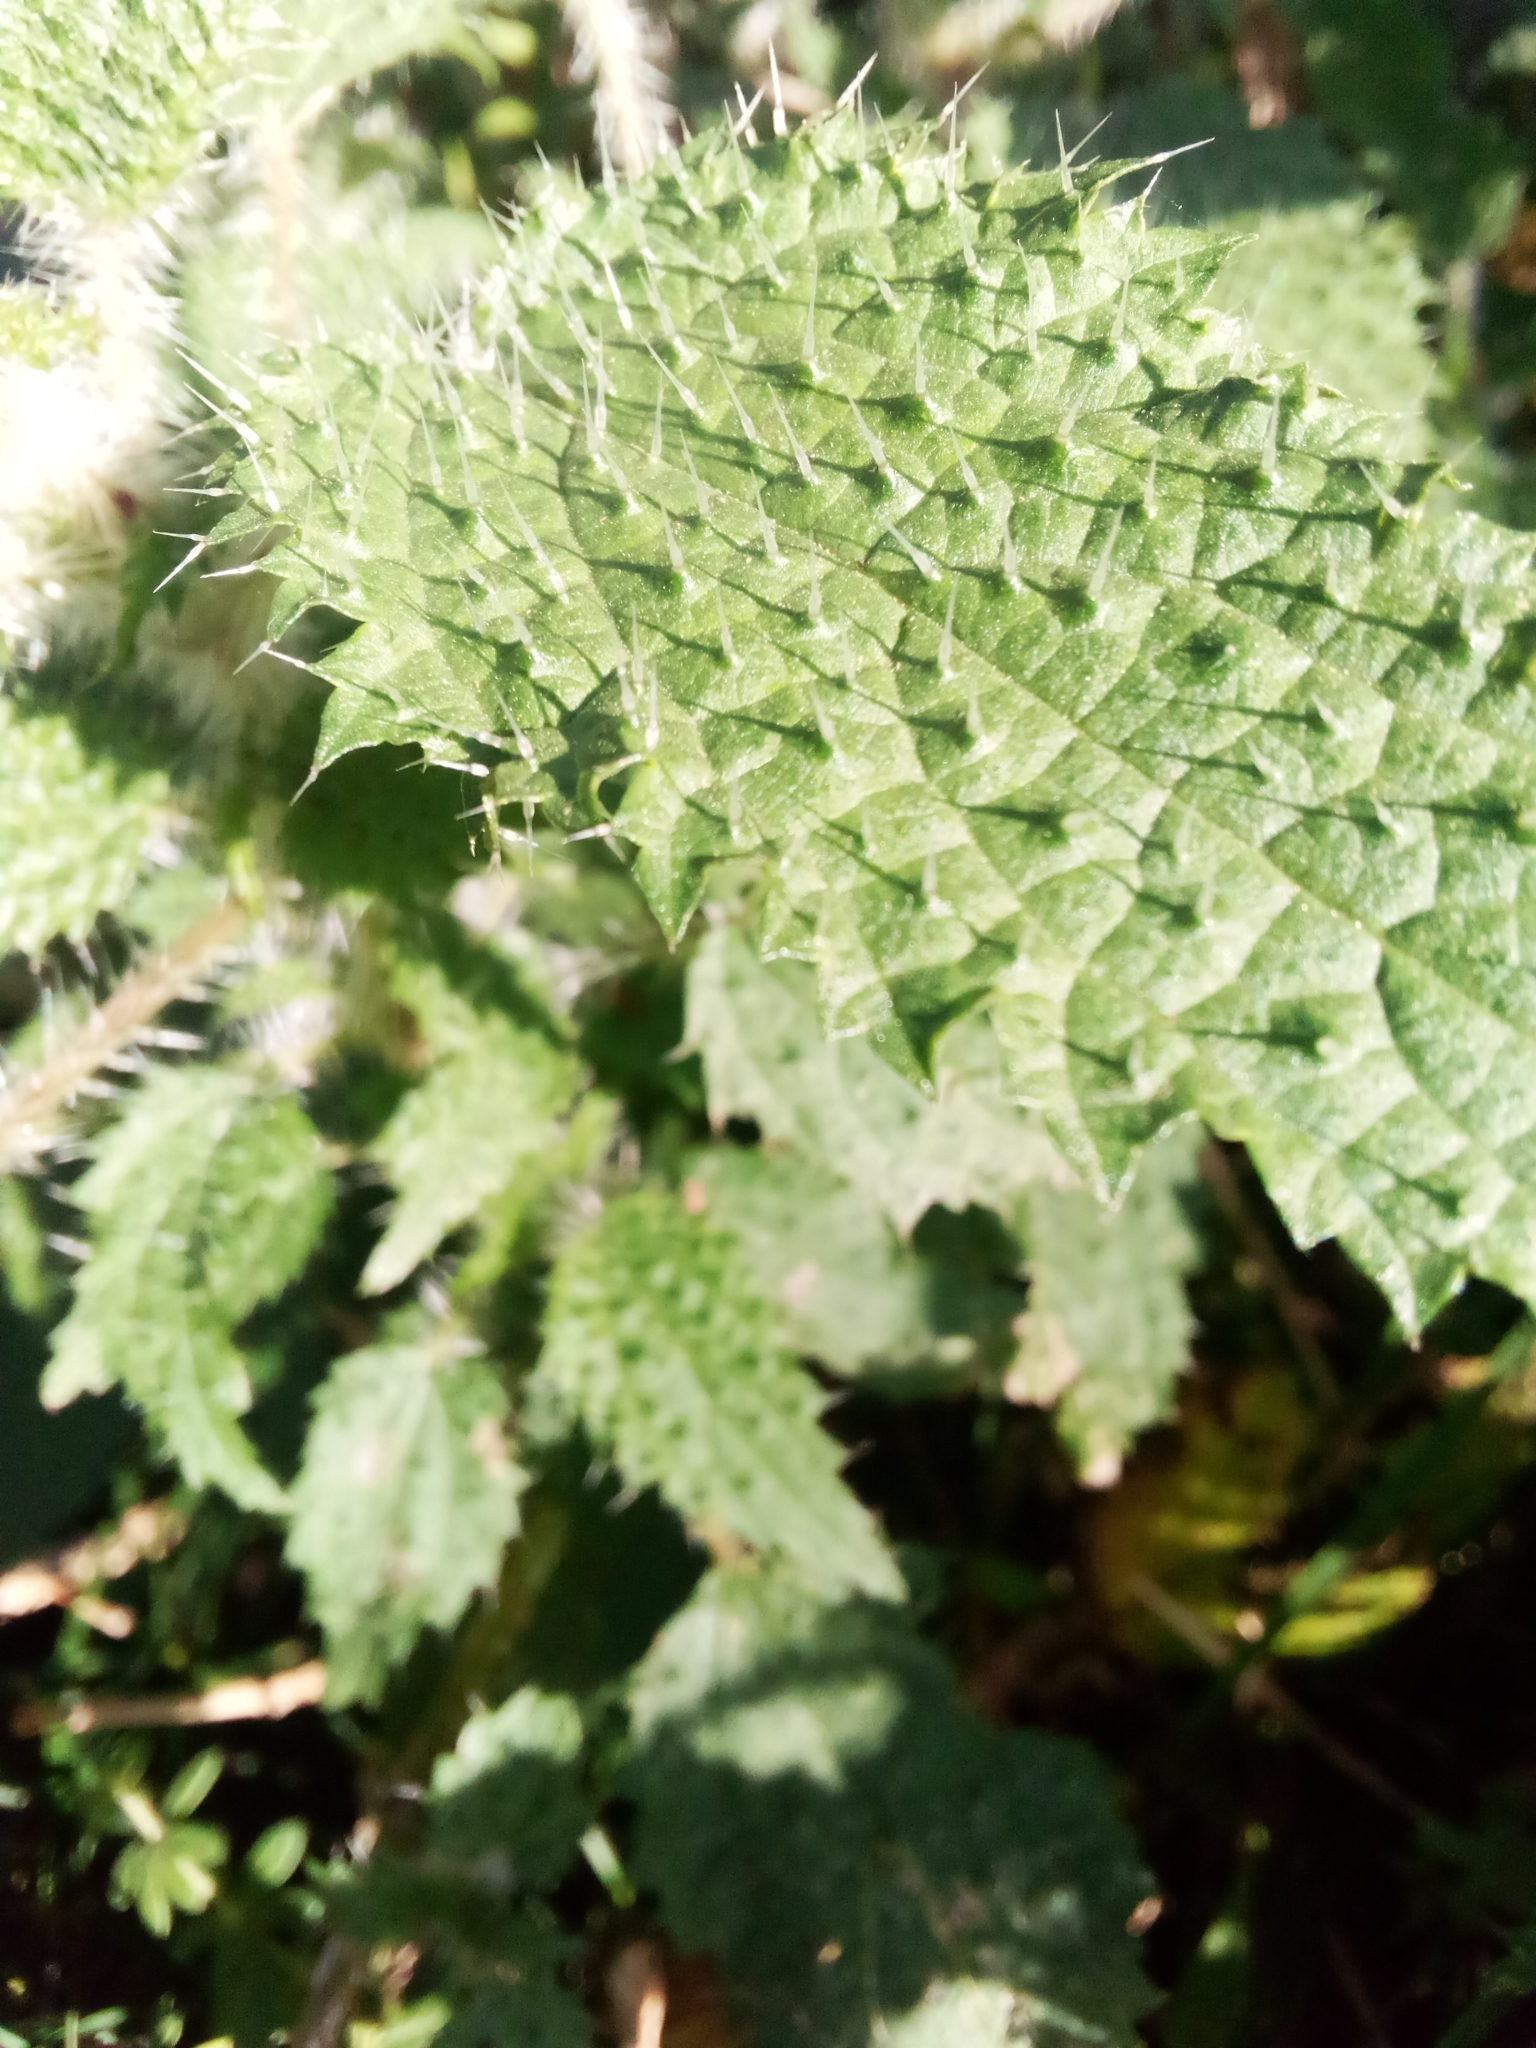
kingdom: Plantae
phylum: Tracheophyta
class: Magnoliopsida
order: Rosales
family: Urticaceae
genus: Urtica
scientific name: Urtica ardens
